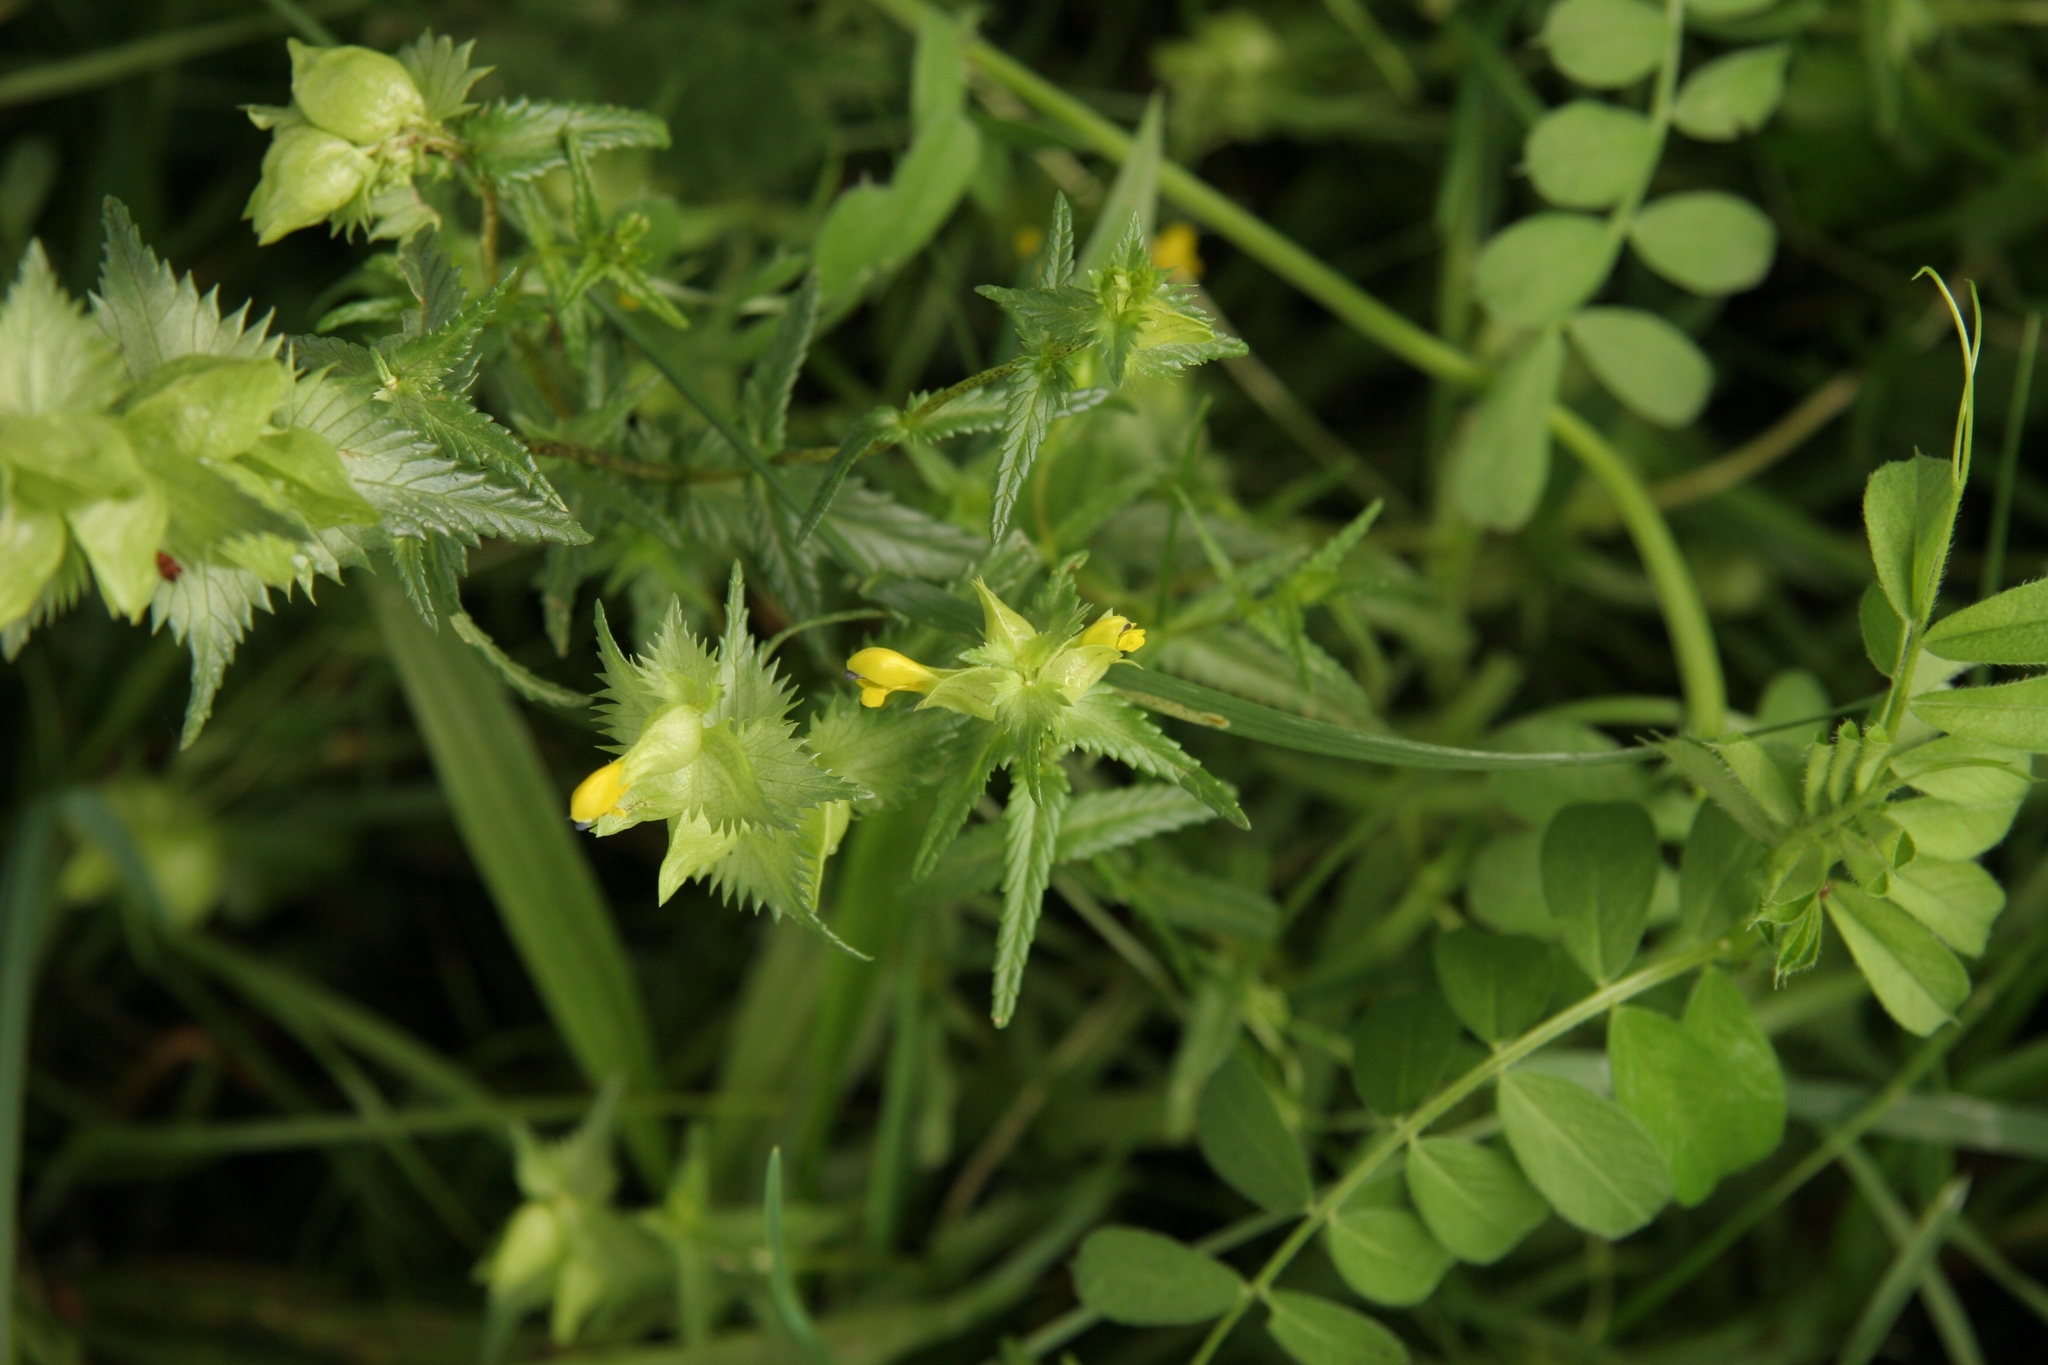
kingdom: Plantae
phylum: Tracheophyta
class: Magnoliopsida
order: Lamiales
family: Orobanchaceae
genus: Rhinanthus
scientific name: Rhinanthus minor
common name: Yellow-rattle
